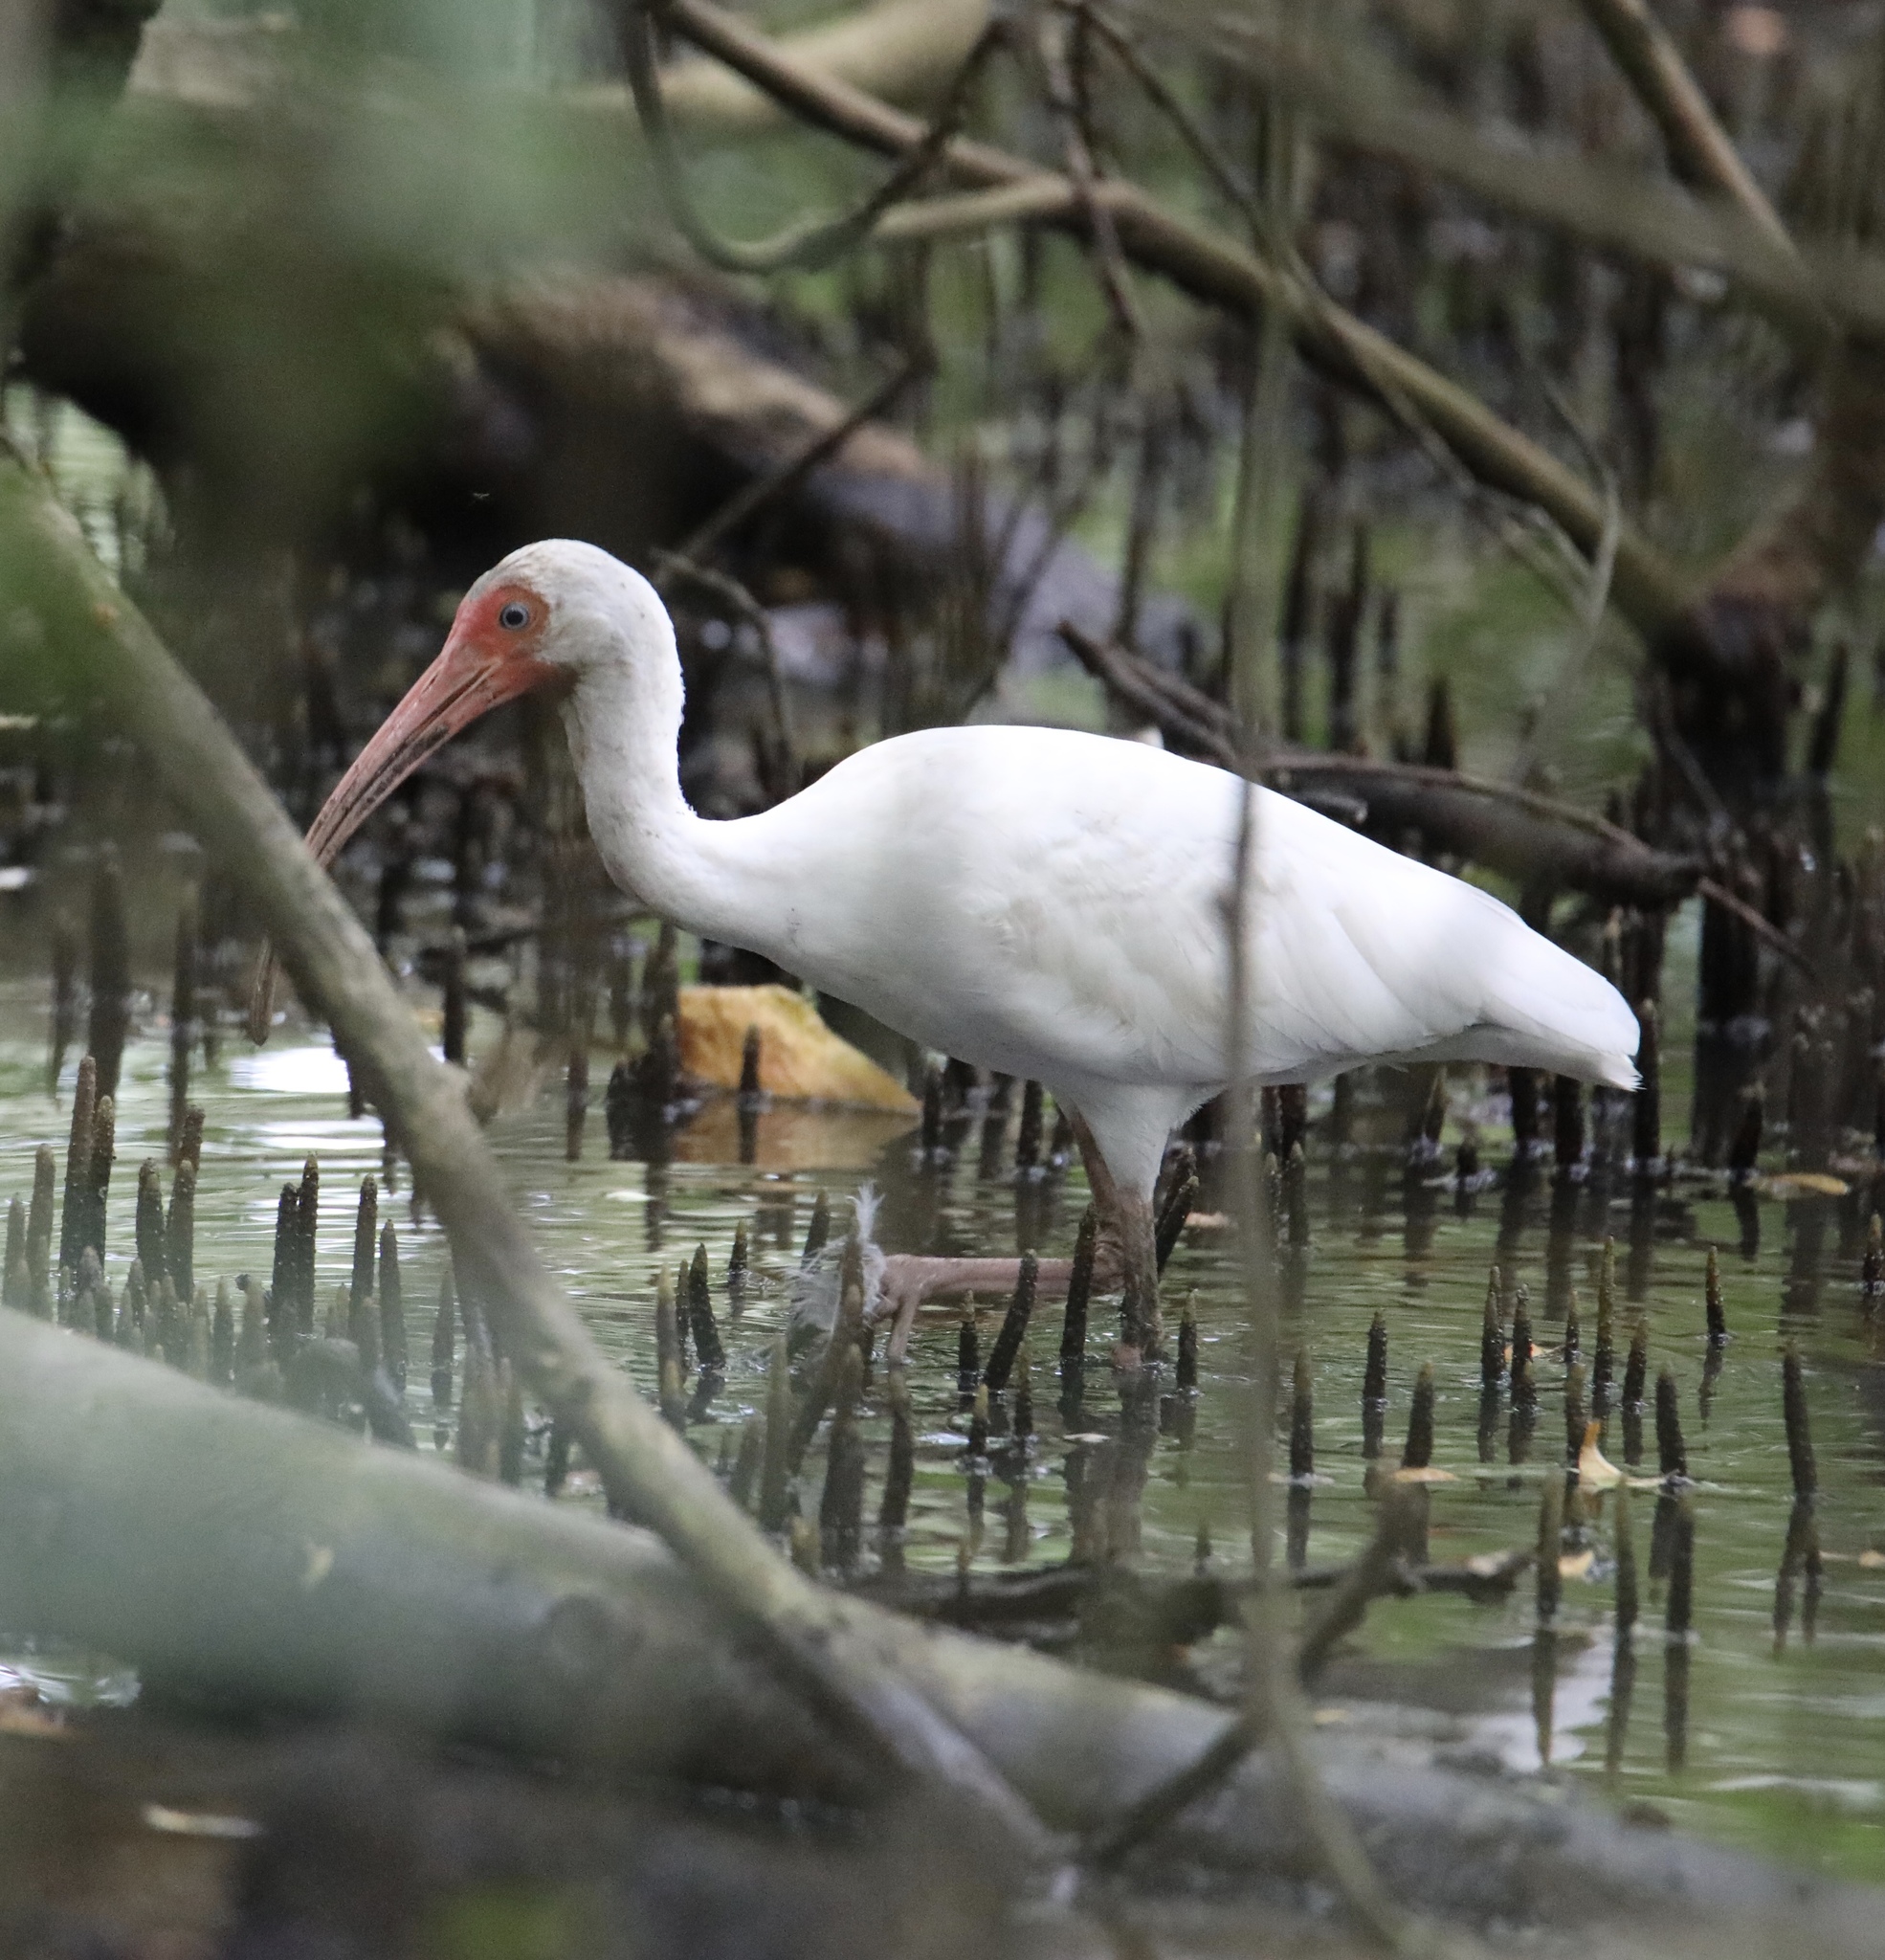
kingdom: Animalia
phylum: Chordata
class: Aves
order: Pelecaniformes
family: Threskiornithidae
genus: Eudocimus
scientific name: Eudocimus albus
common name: White ibis
